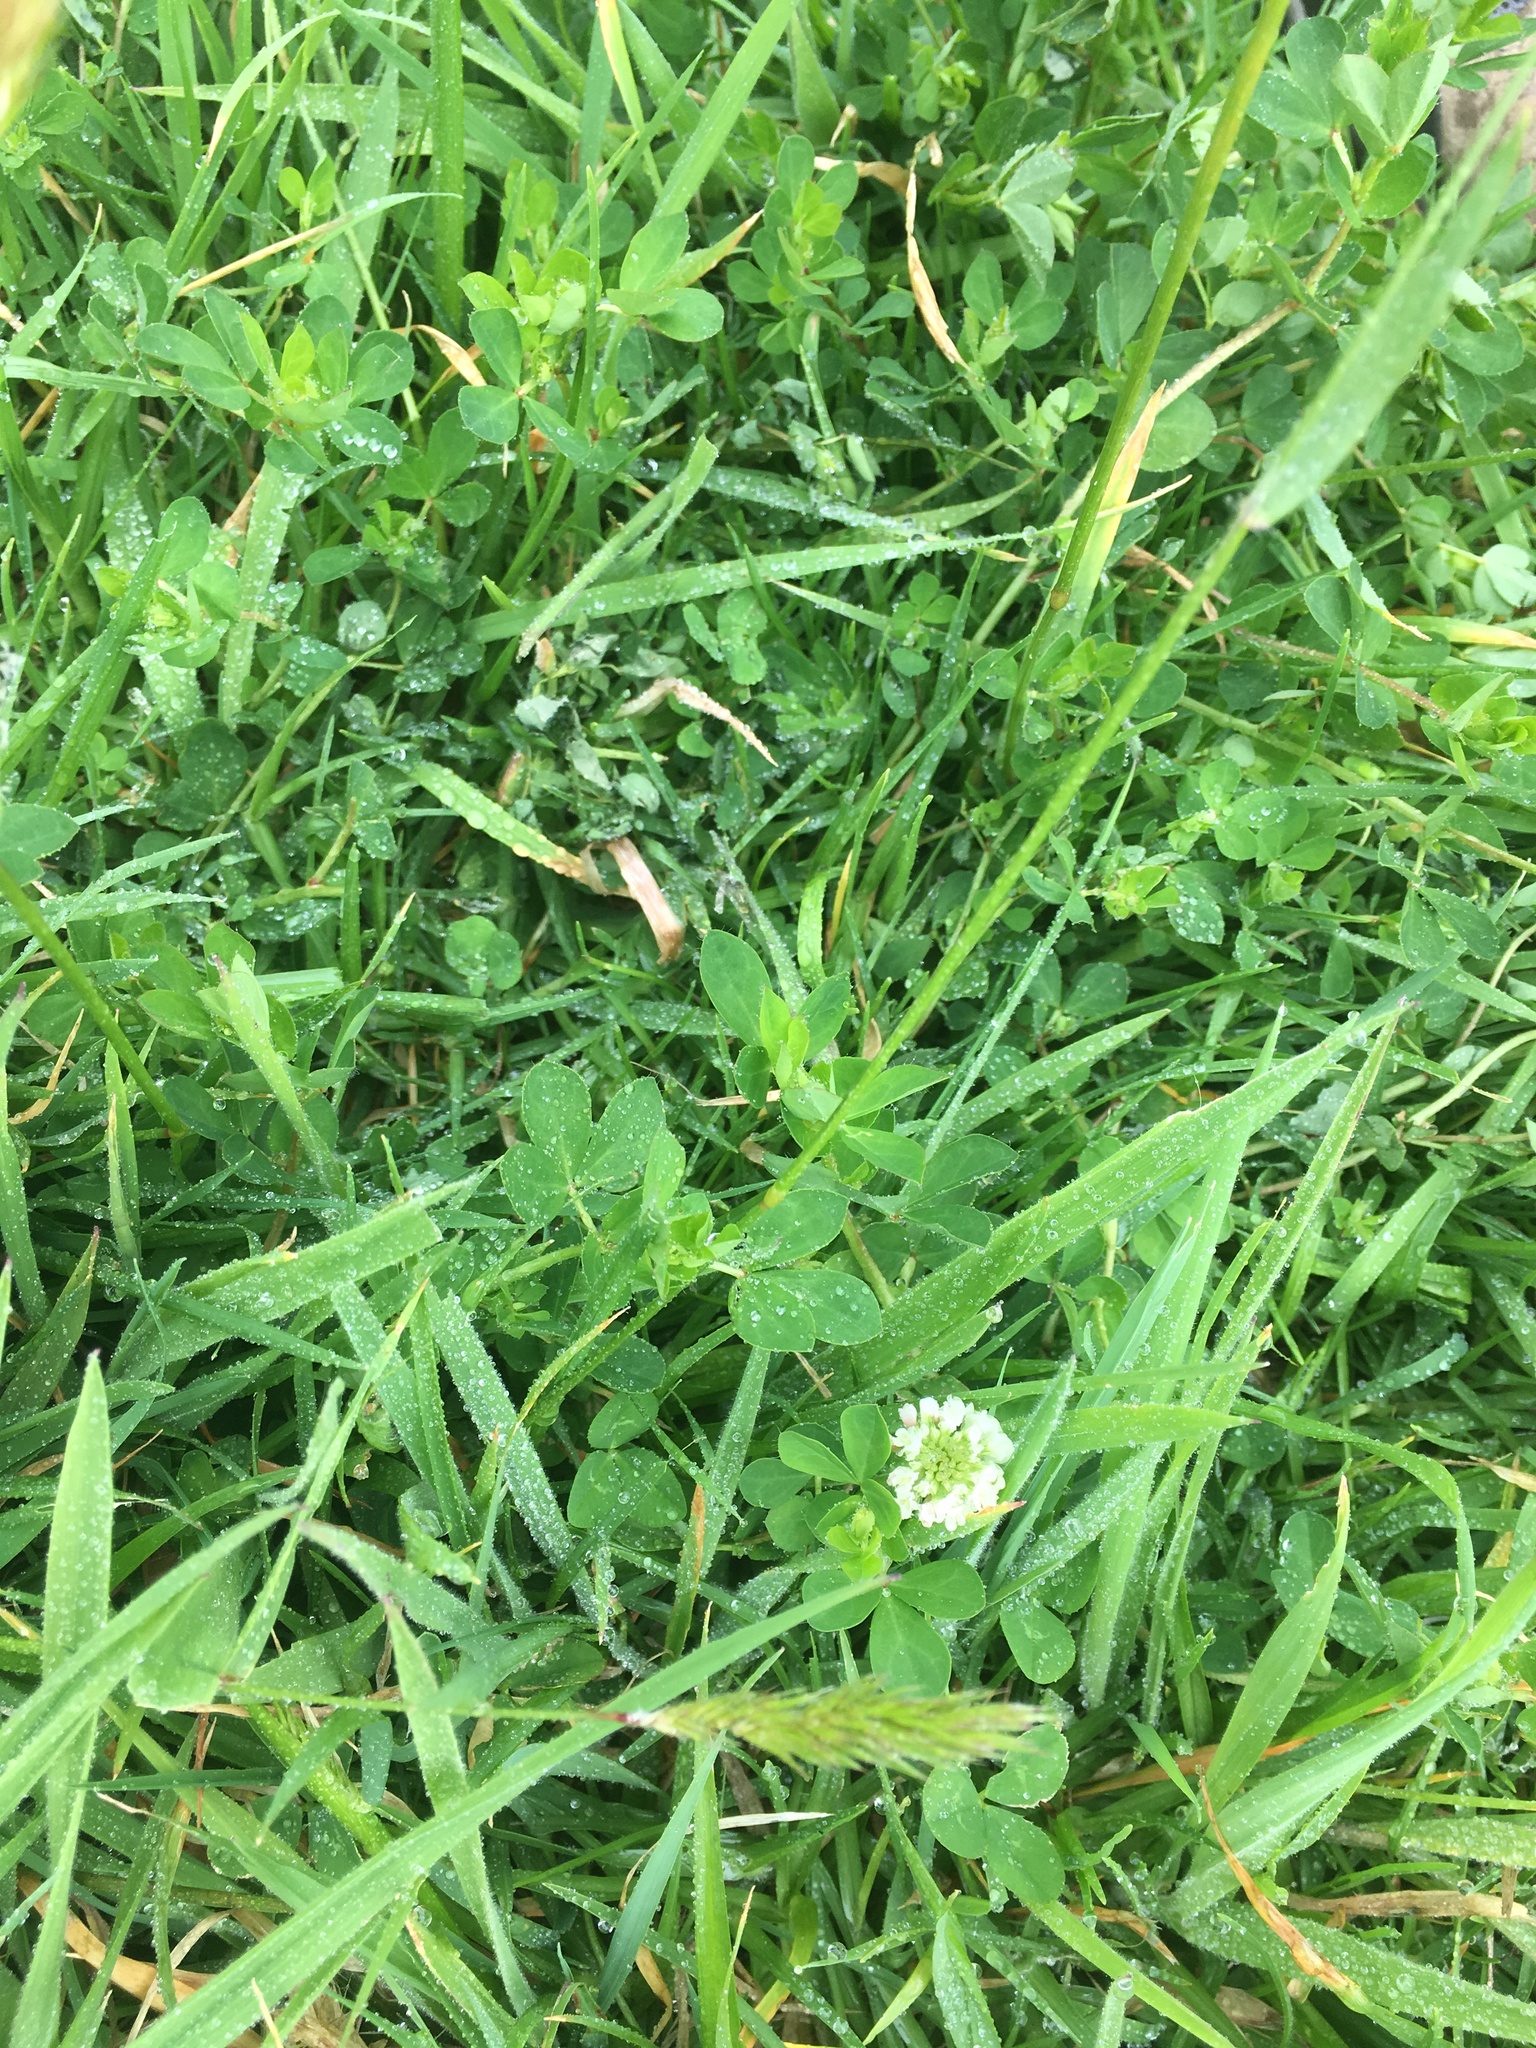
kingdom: Plantae
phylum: Tracheophyta
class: Magnoliopsida
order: Fabales
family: Fabaceae
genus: Trifolium
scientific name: Trifolium repens
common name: White clover
